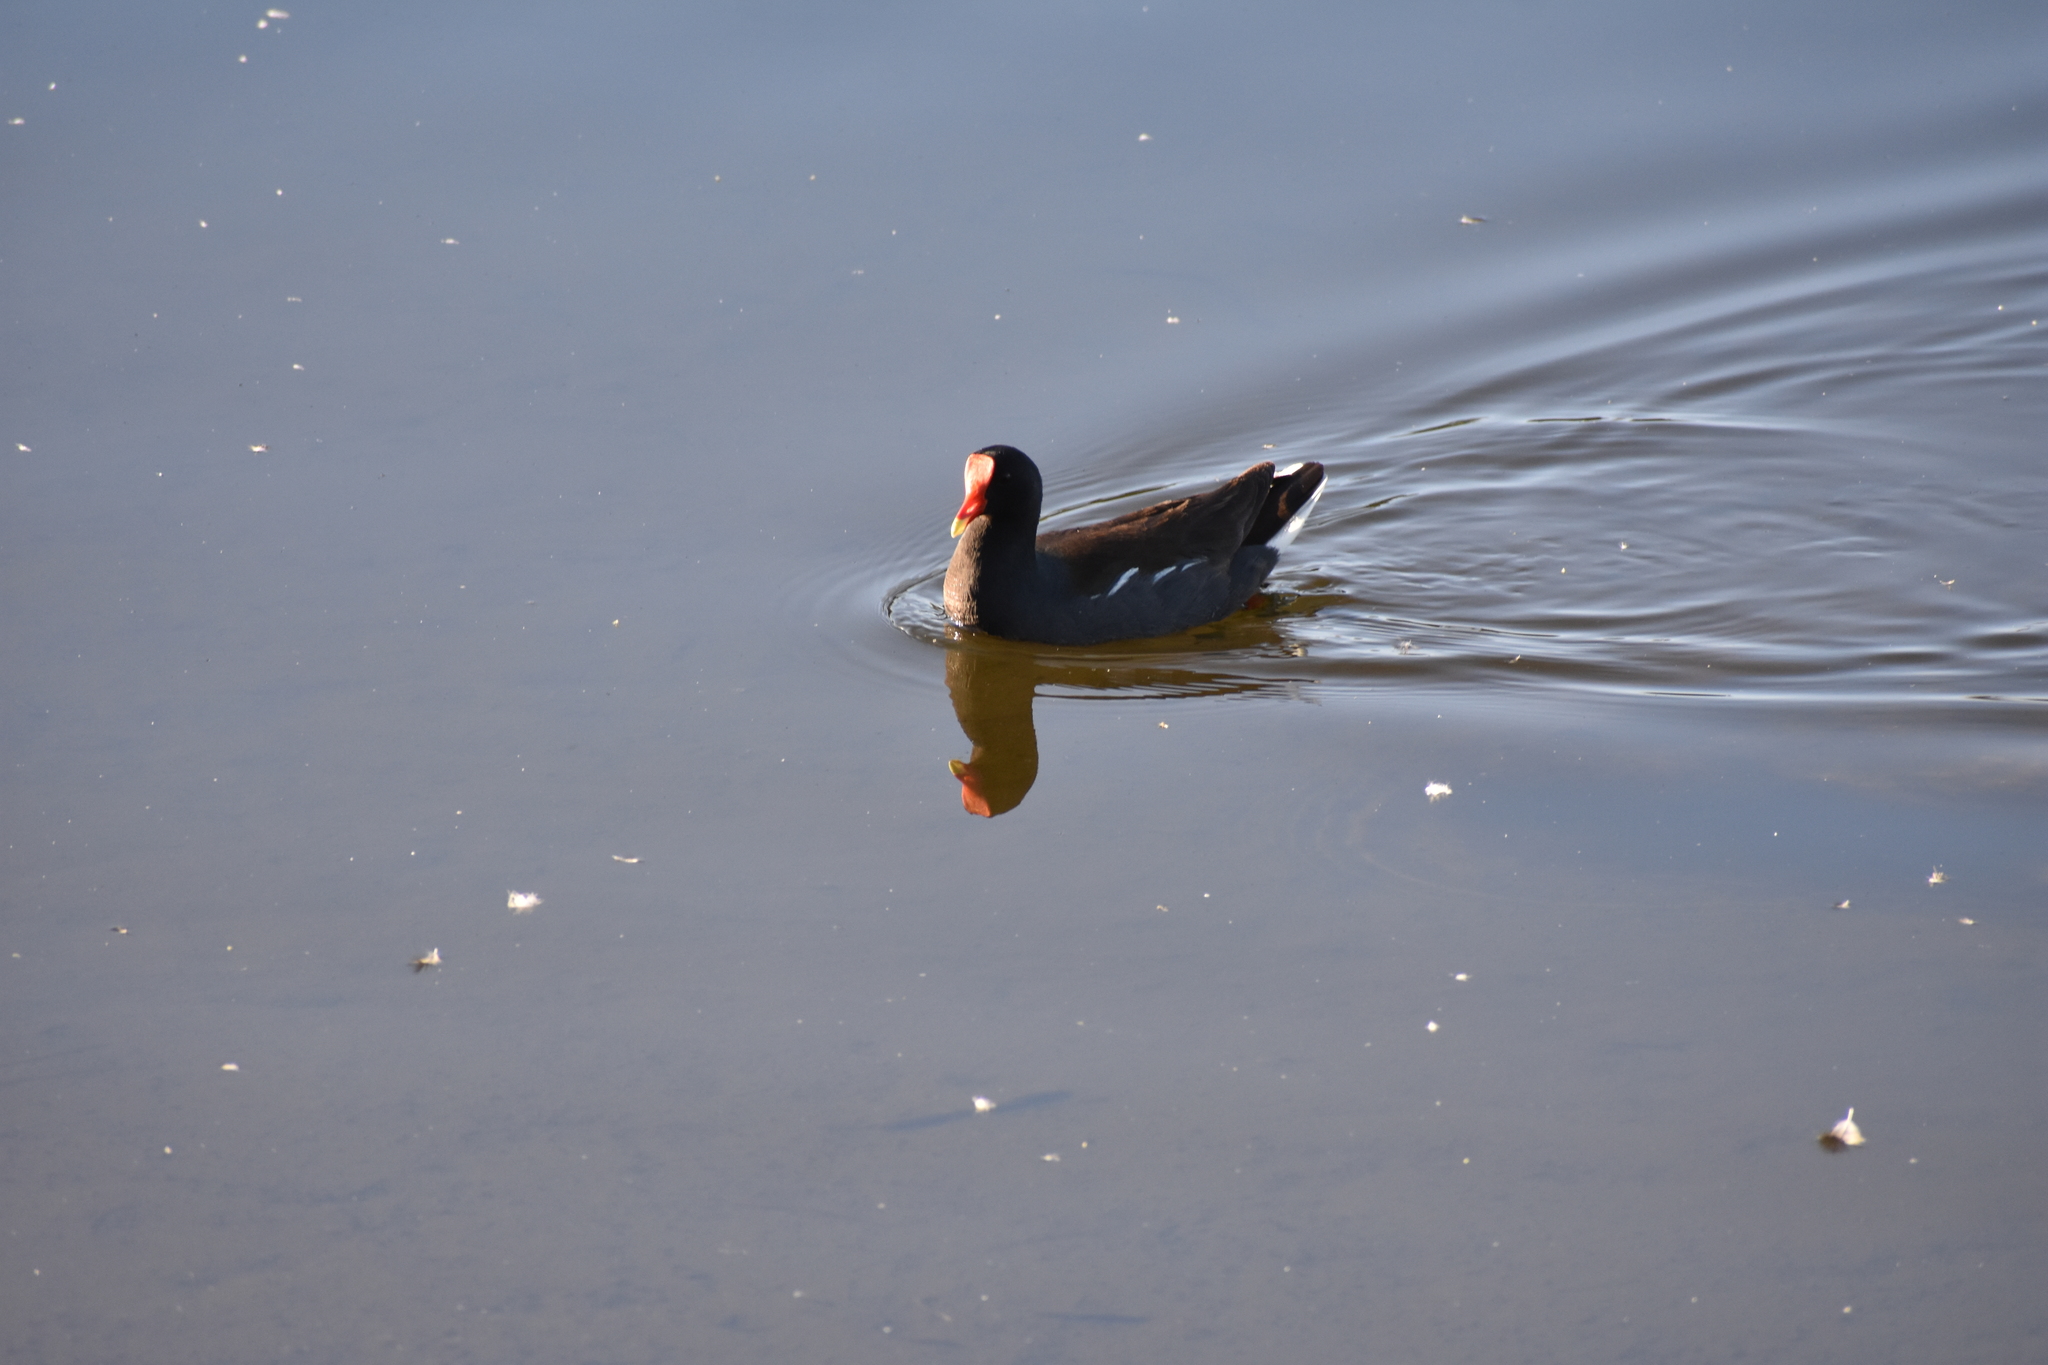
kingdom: Animalia
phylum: Chordata
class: Aves
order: Gruiformes
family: Rallidae
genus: Gallinula
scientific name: Gallinula chloropus
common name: Common moorhen
